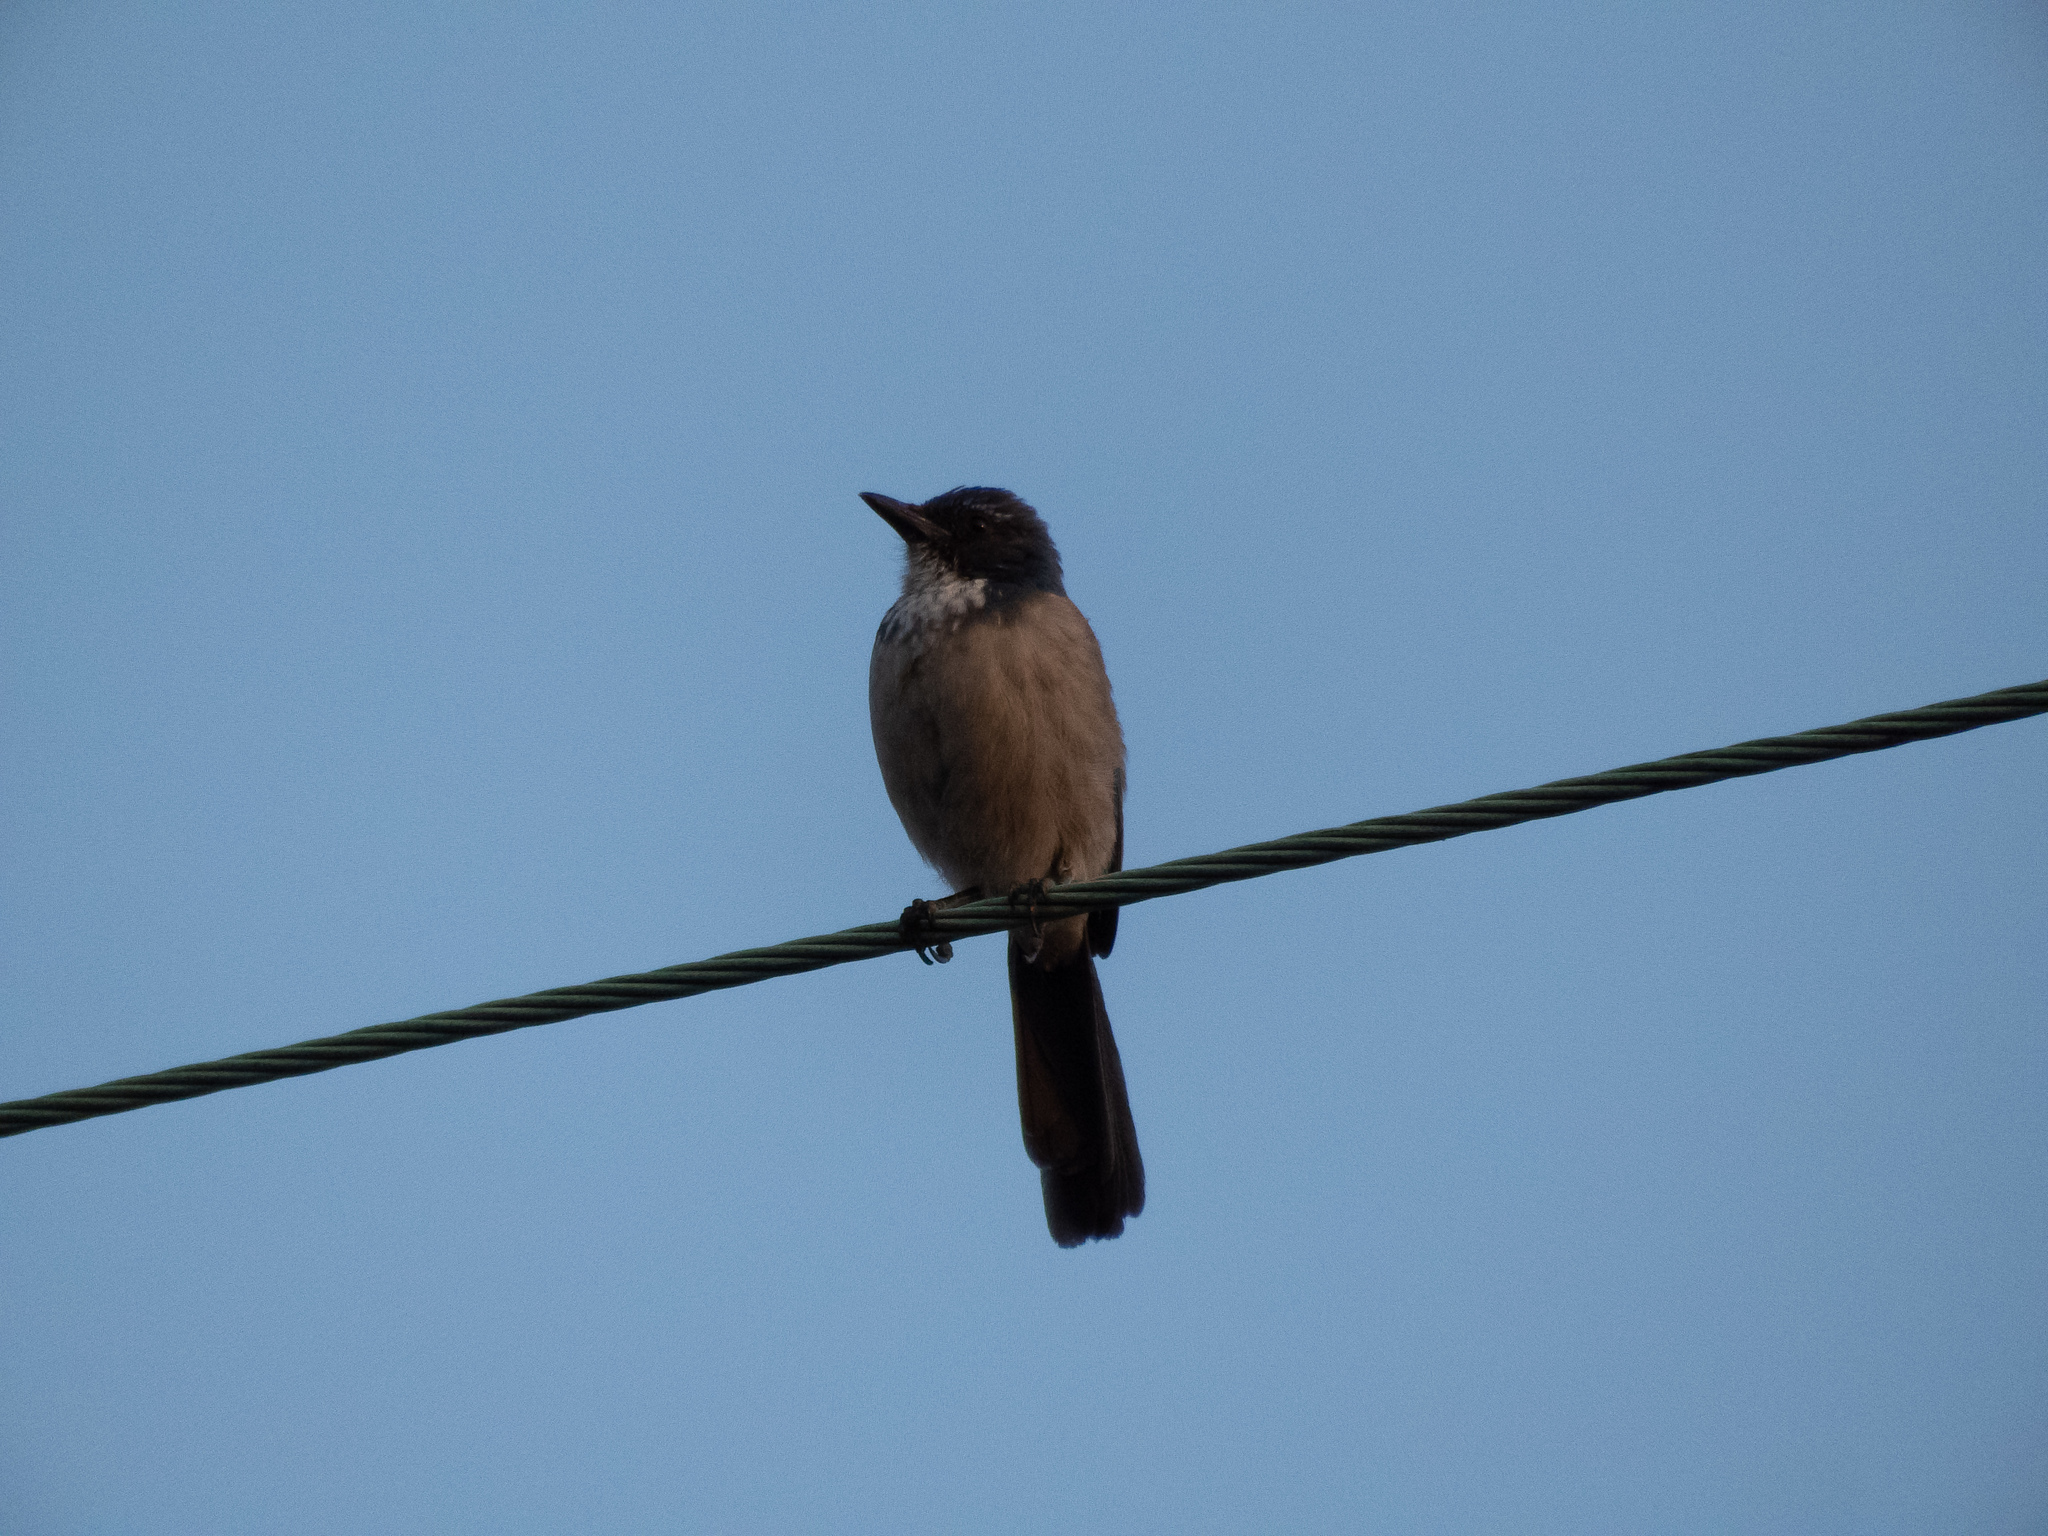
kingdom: Animalia
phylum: Chordata
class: Aves
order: Passeriformes
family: Corvidae
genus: Aphelocoma
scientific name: Aphelocoma californica
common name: California scrub-jay
